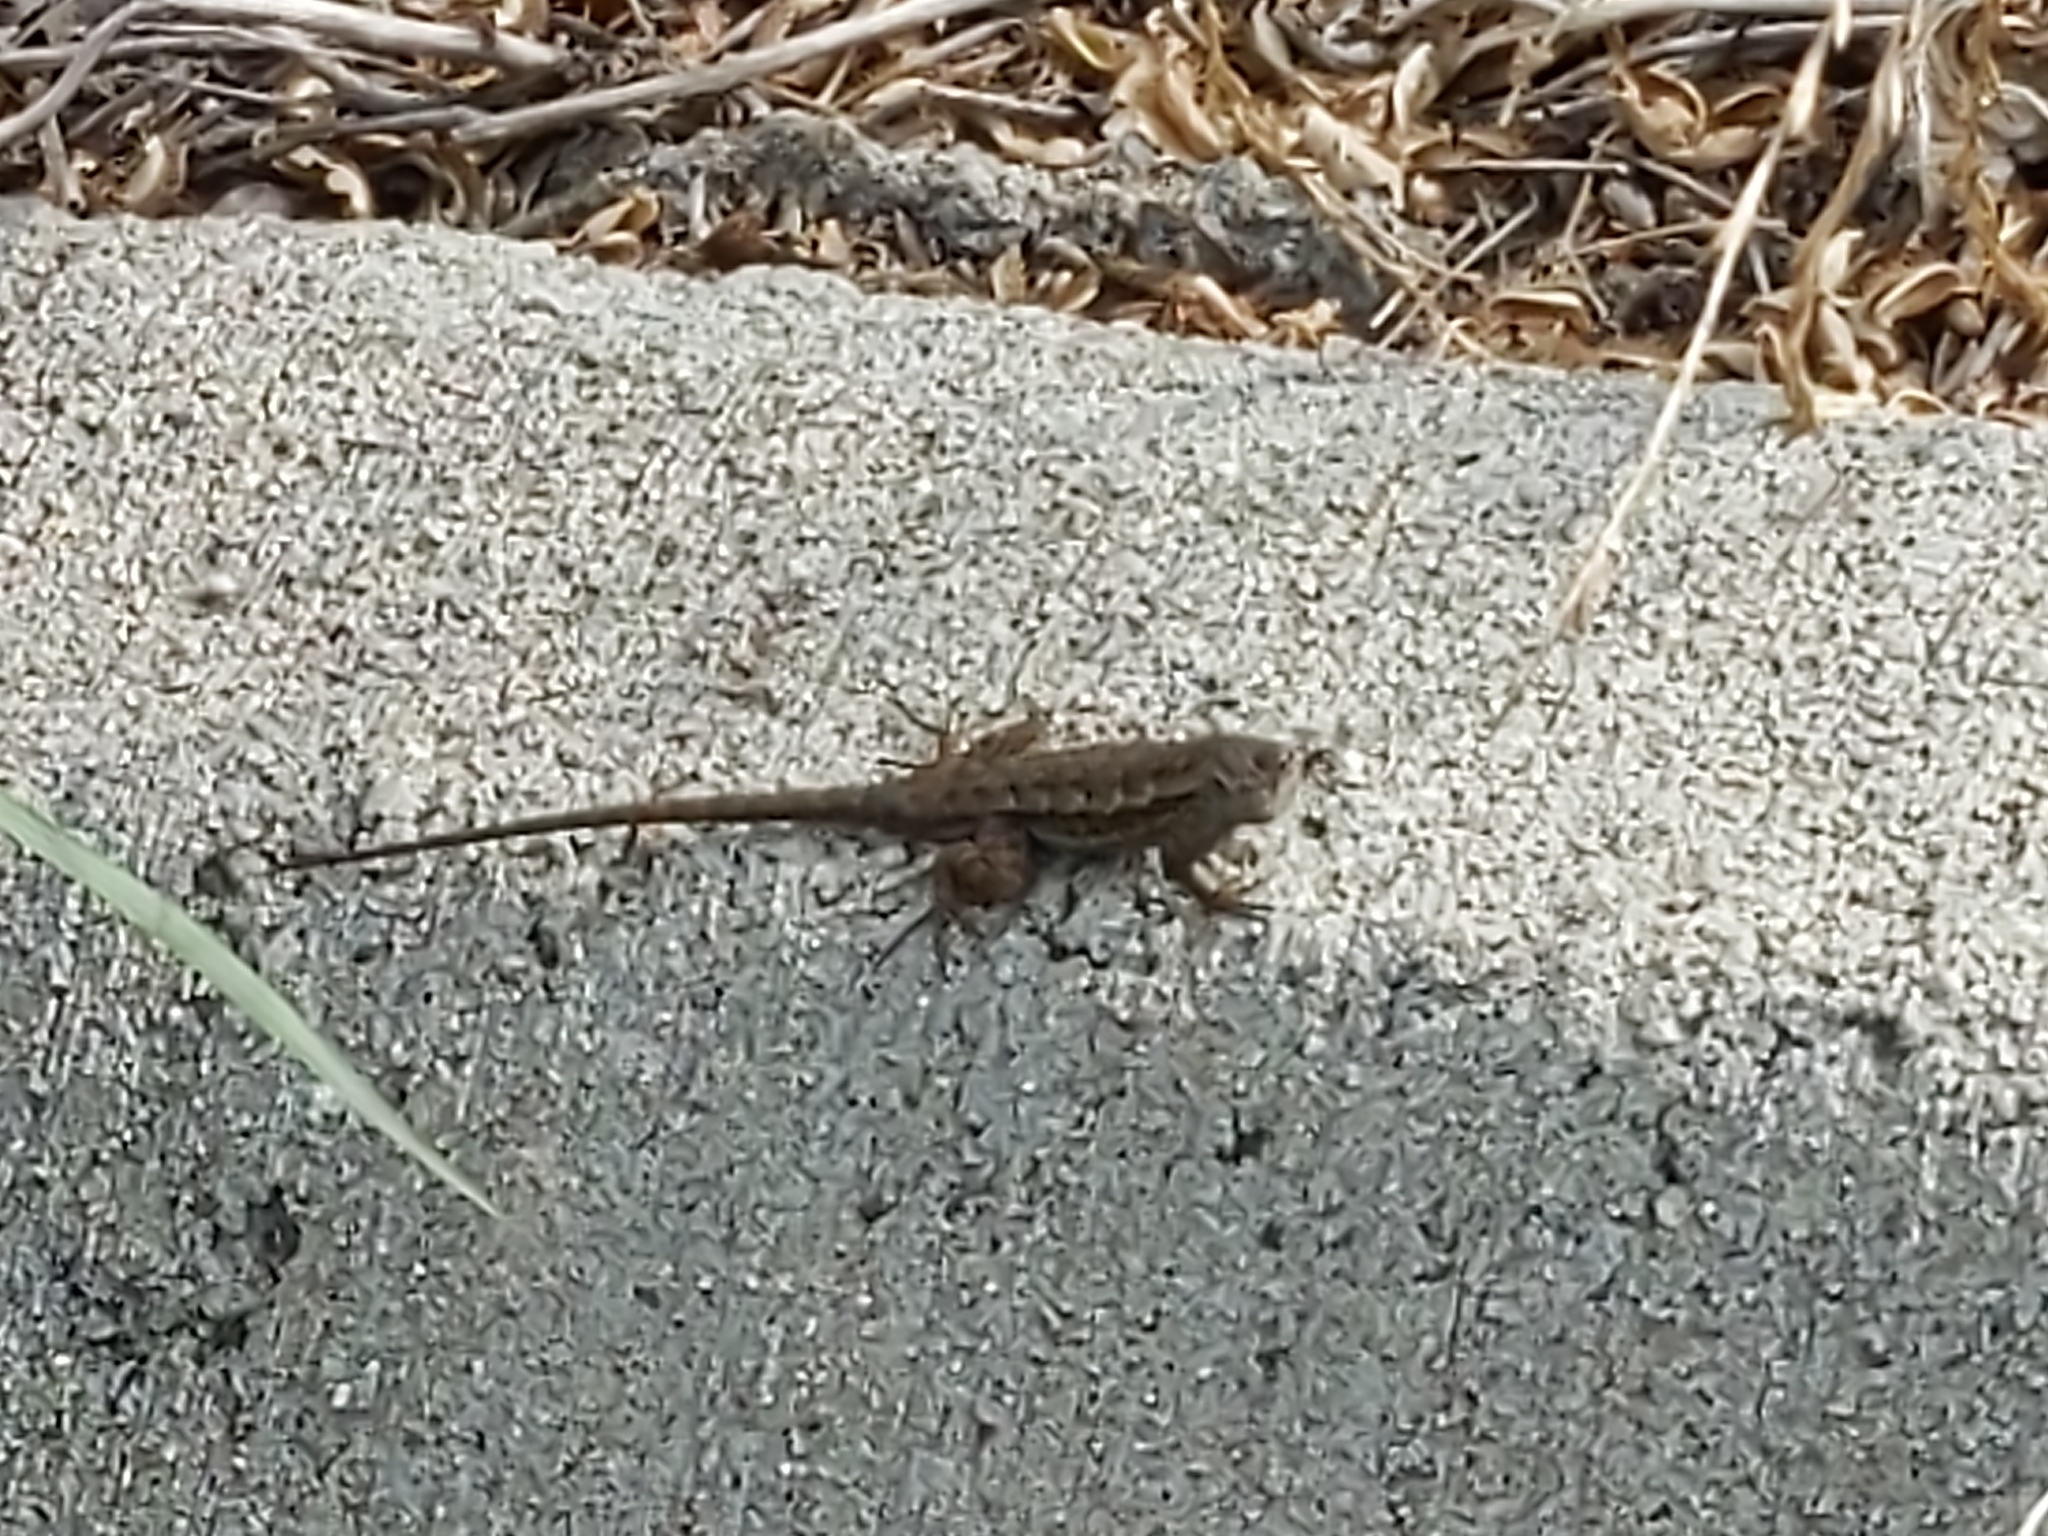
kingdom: Animalia
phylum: Chordata
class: Squamata
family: Phrynosomatidae
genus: Sceloporus
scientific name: Sceloporus occidentalis
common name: Western fence lizard
